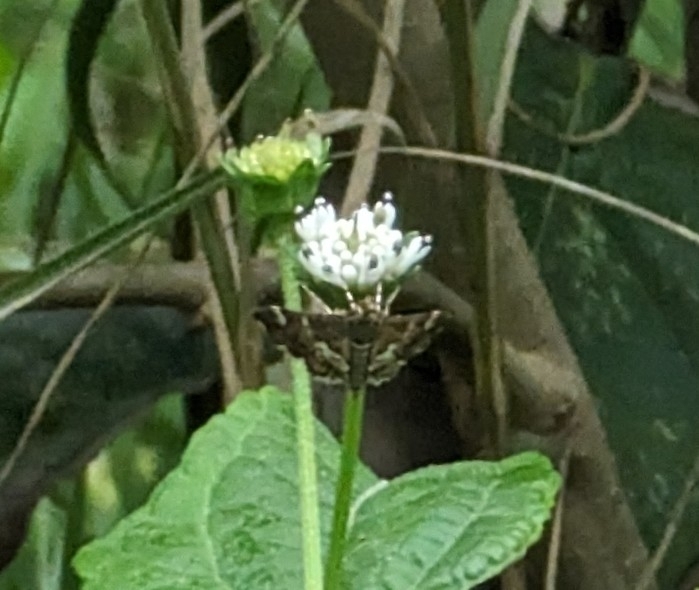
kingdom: Animalia
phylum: Arthropoda
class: Insecta
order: Lepidoptera
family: Crambidae
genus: Hymenia
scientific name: Hymenia perspectalis
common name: Spotted beet webworm
